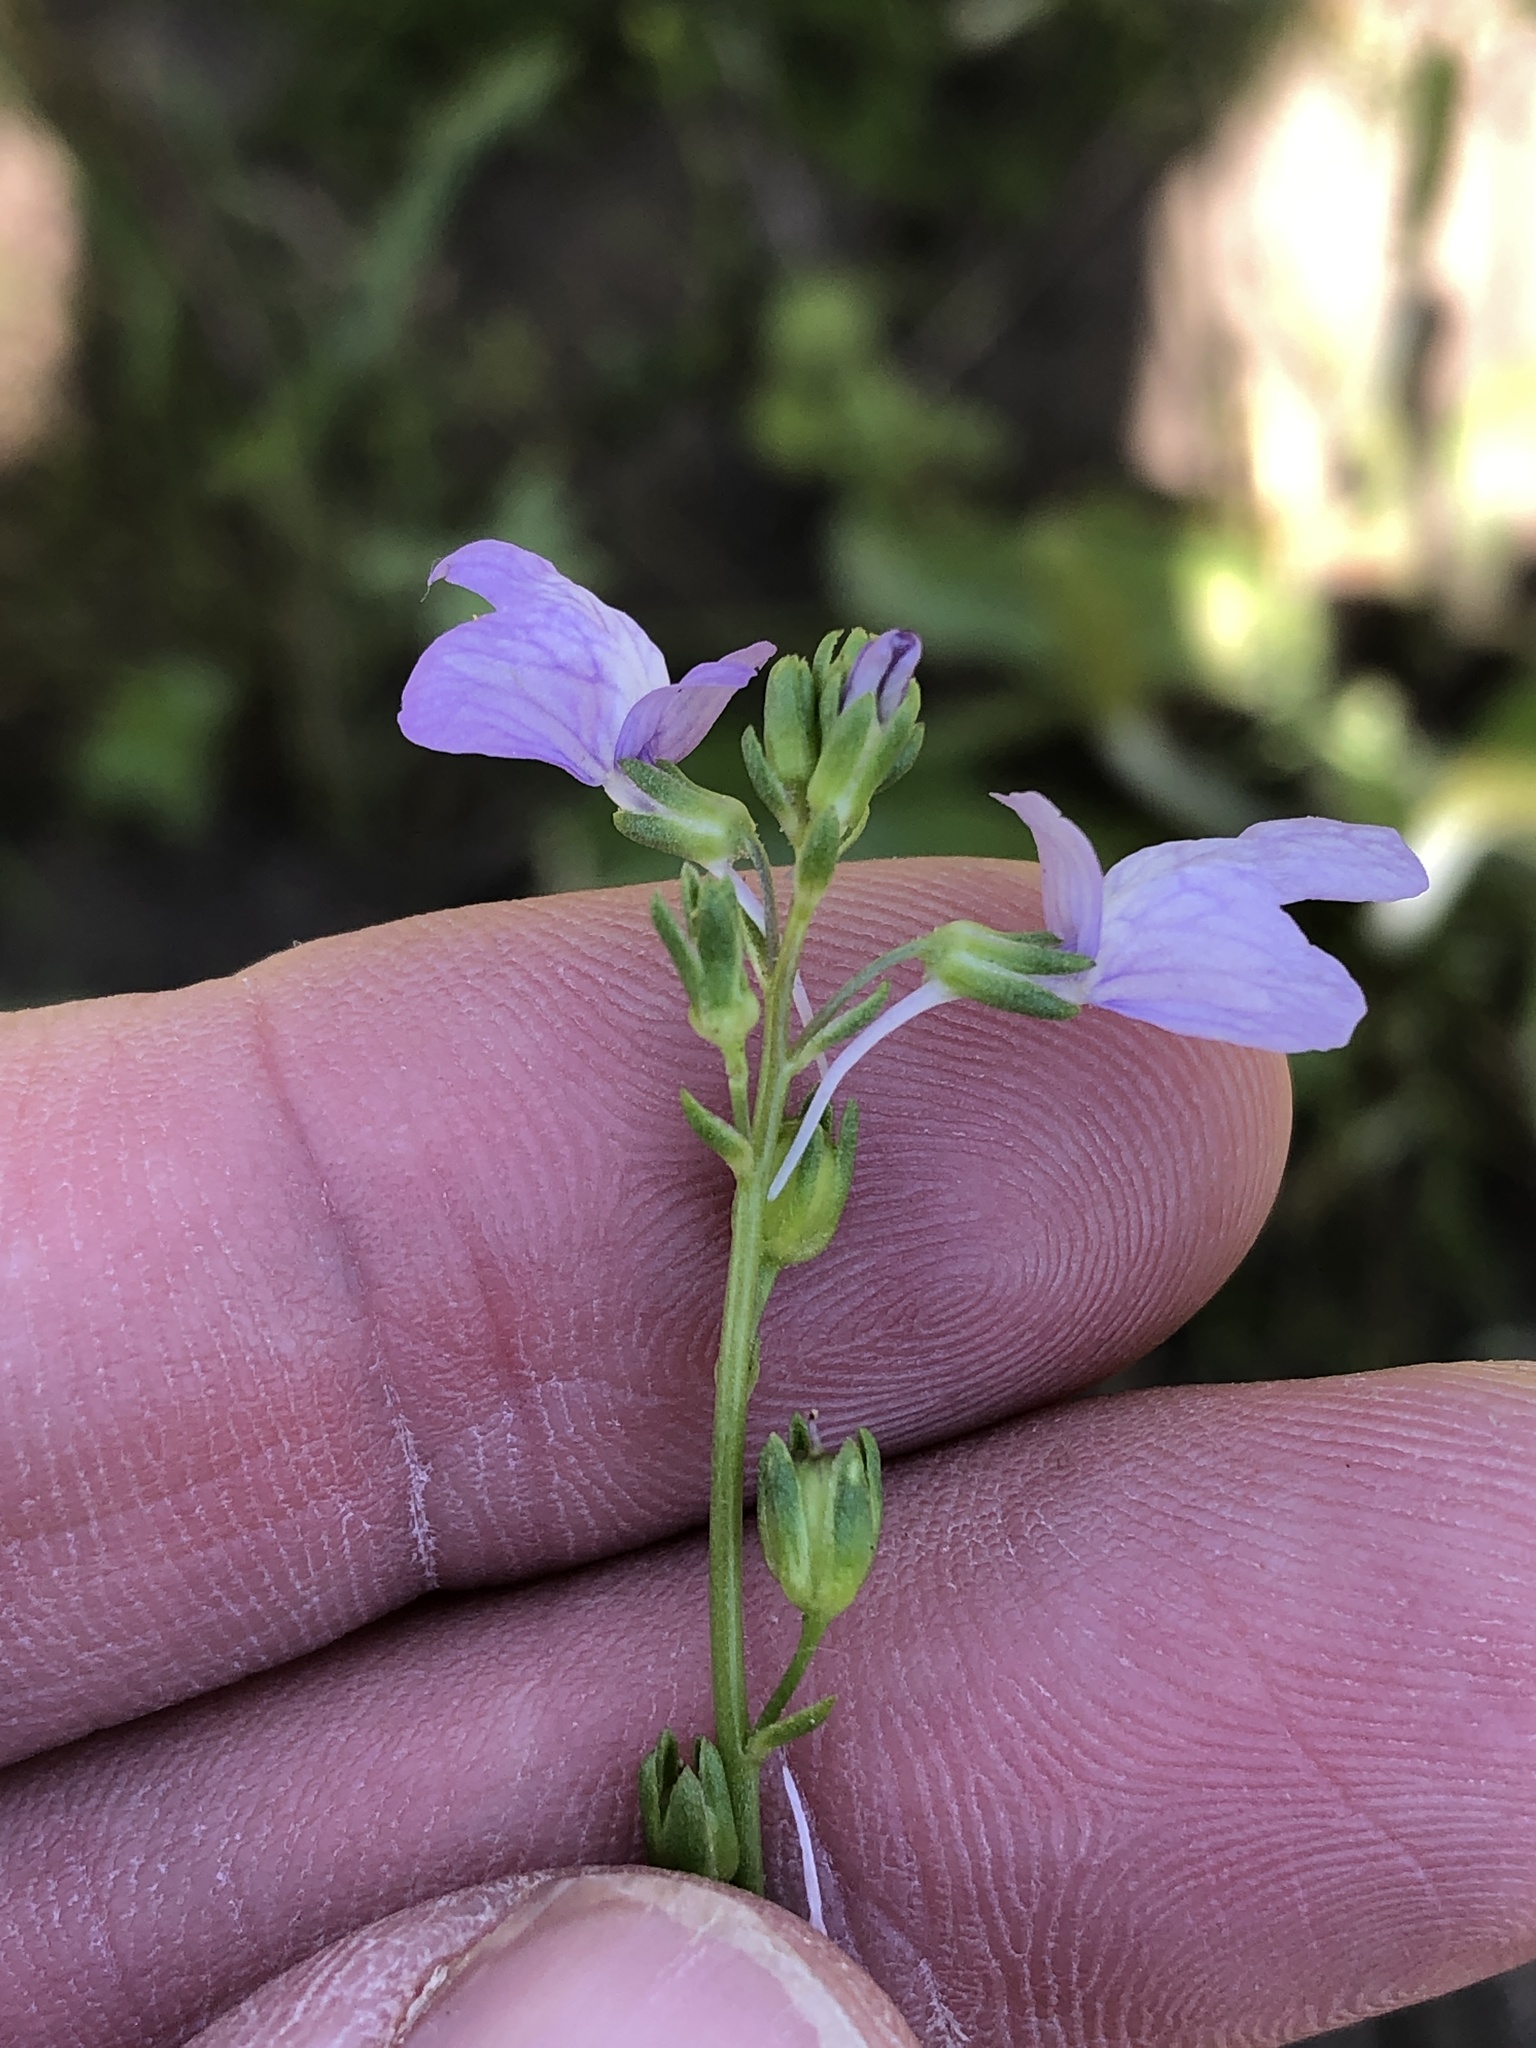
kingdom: Plantae
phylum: Tracheophyta
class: Magnoliopsida
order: Lamiales
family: Plantaginaceae
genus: Nuttallanthus
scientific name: Nuttallanthus texanus
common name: Texas toadflax
